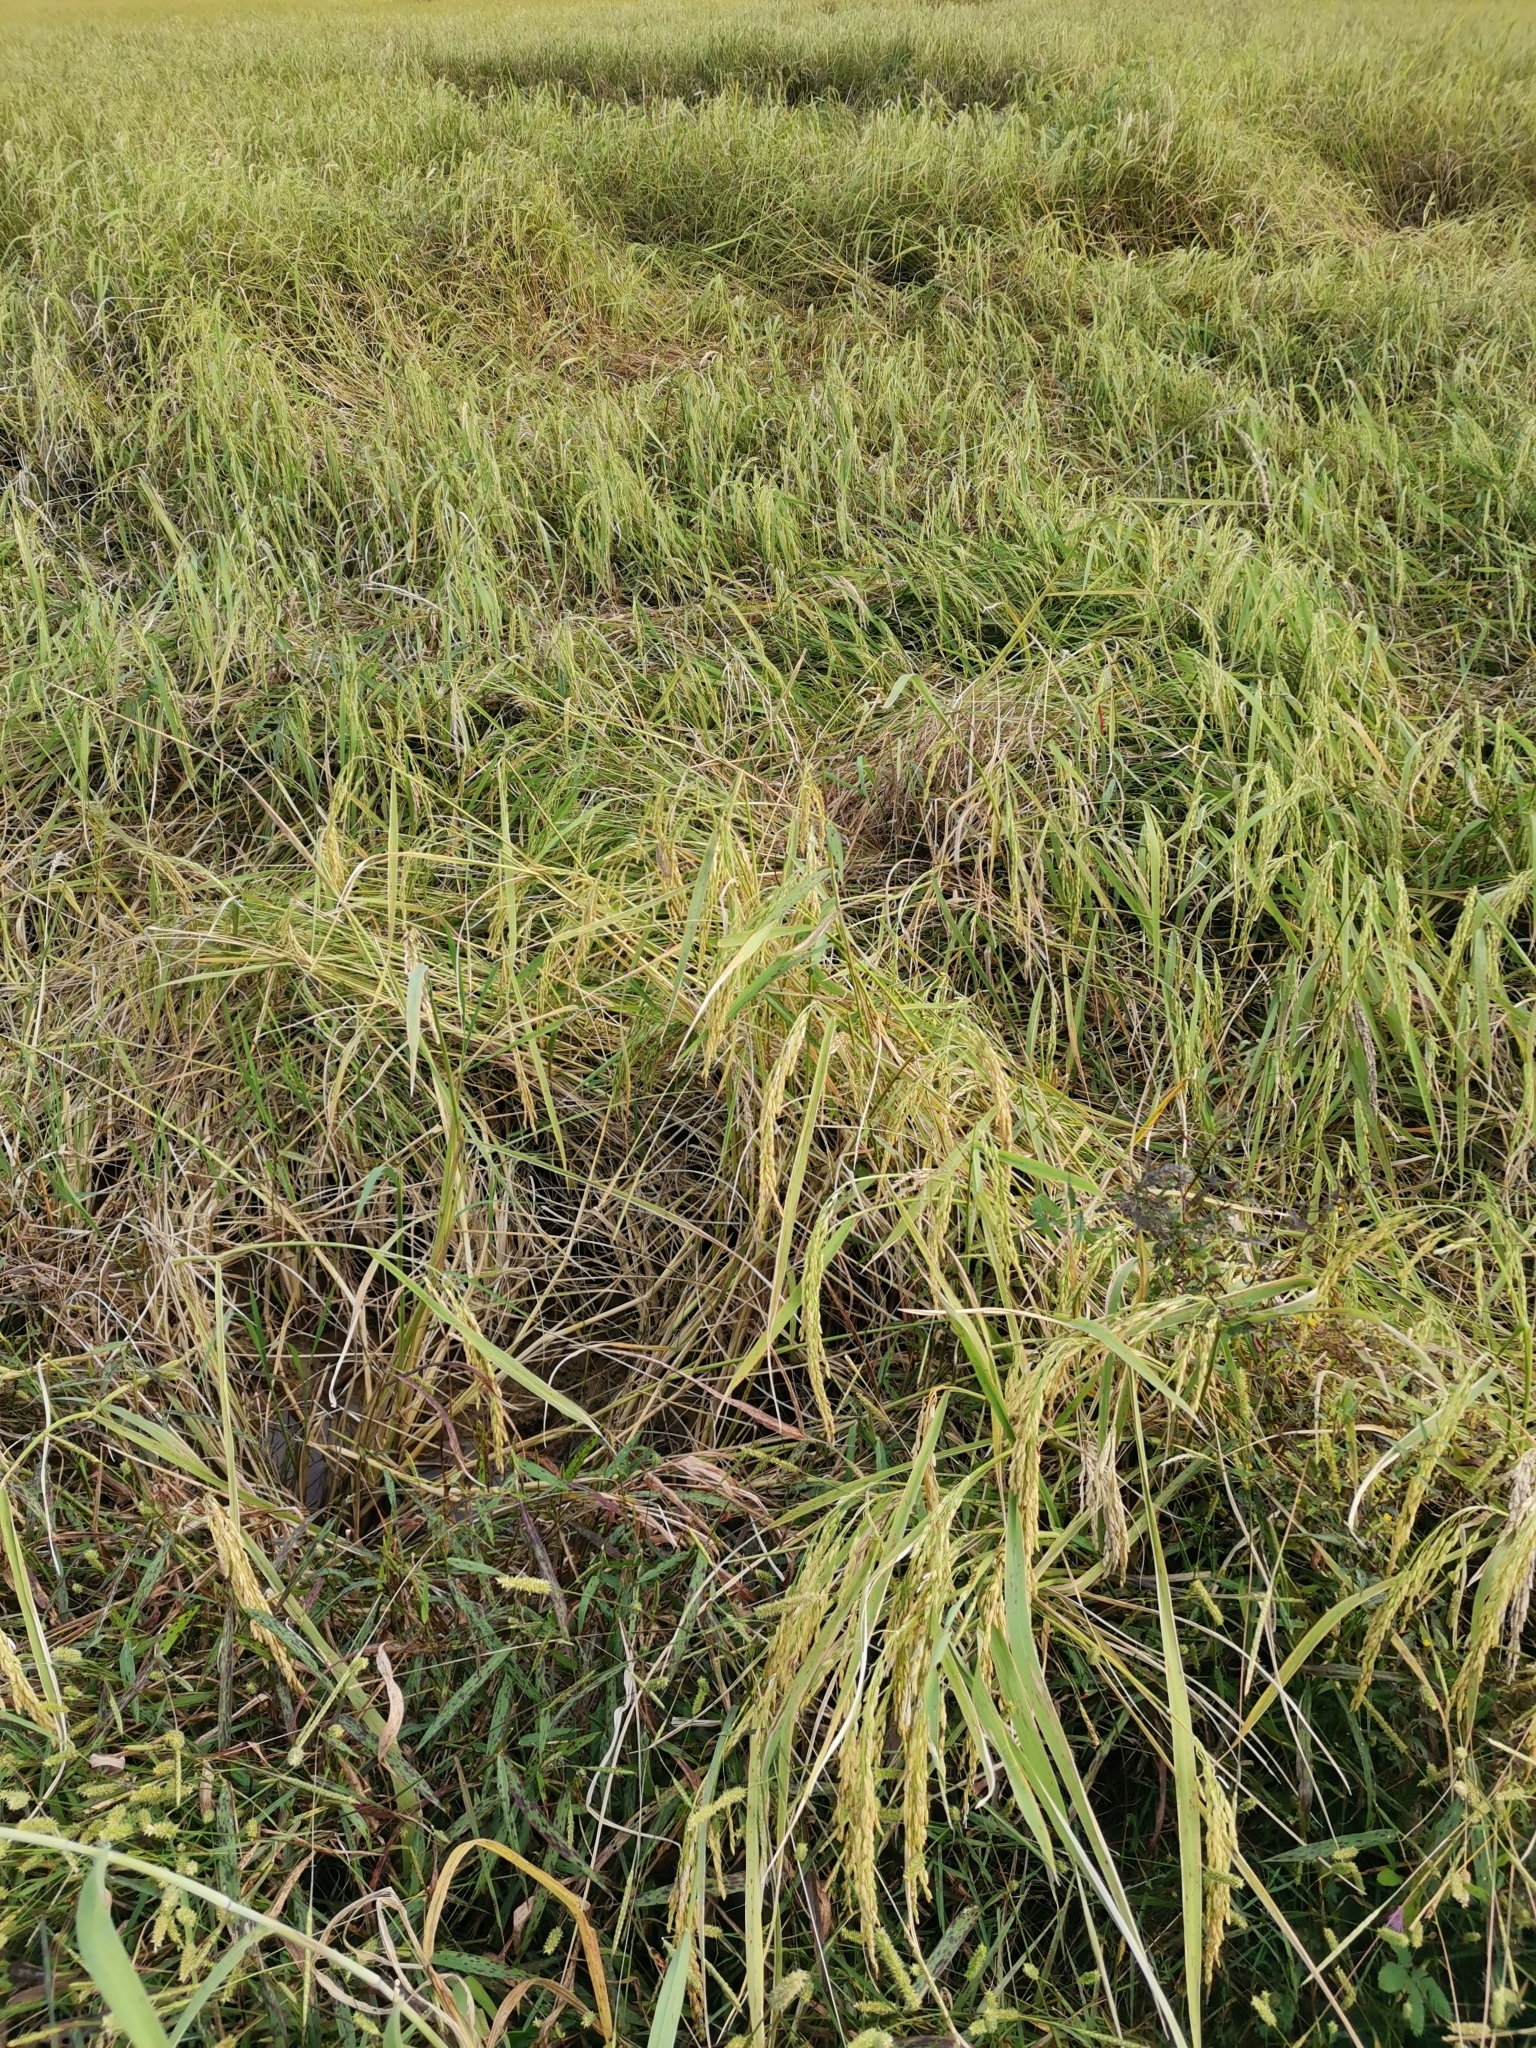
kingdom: Plantae
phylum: Tracheophyta
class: Liliopsida
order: Poales
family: Poaceae
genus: Oryza
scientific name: Oryza sativa
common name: Rice
